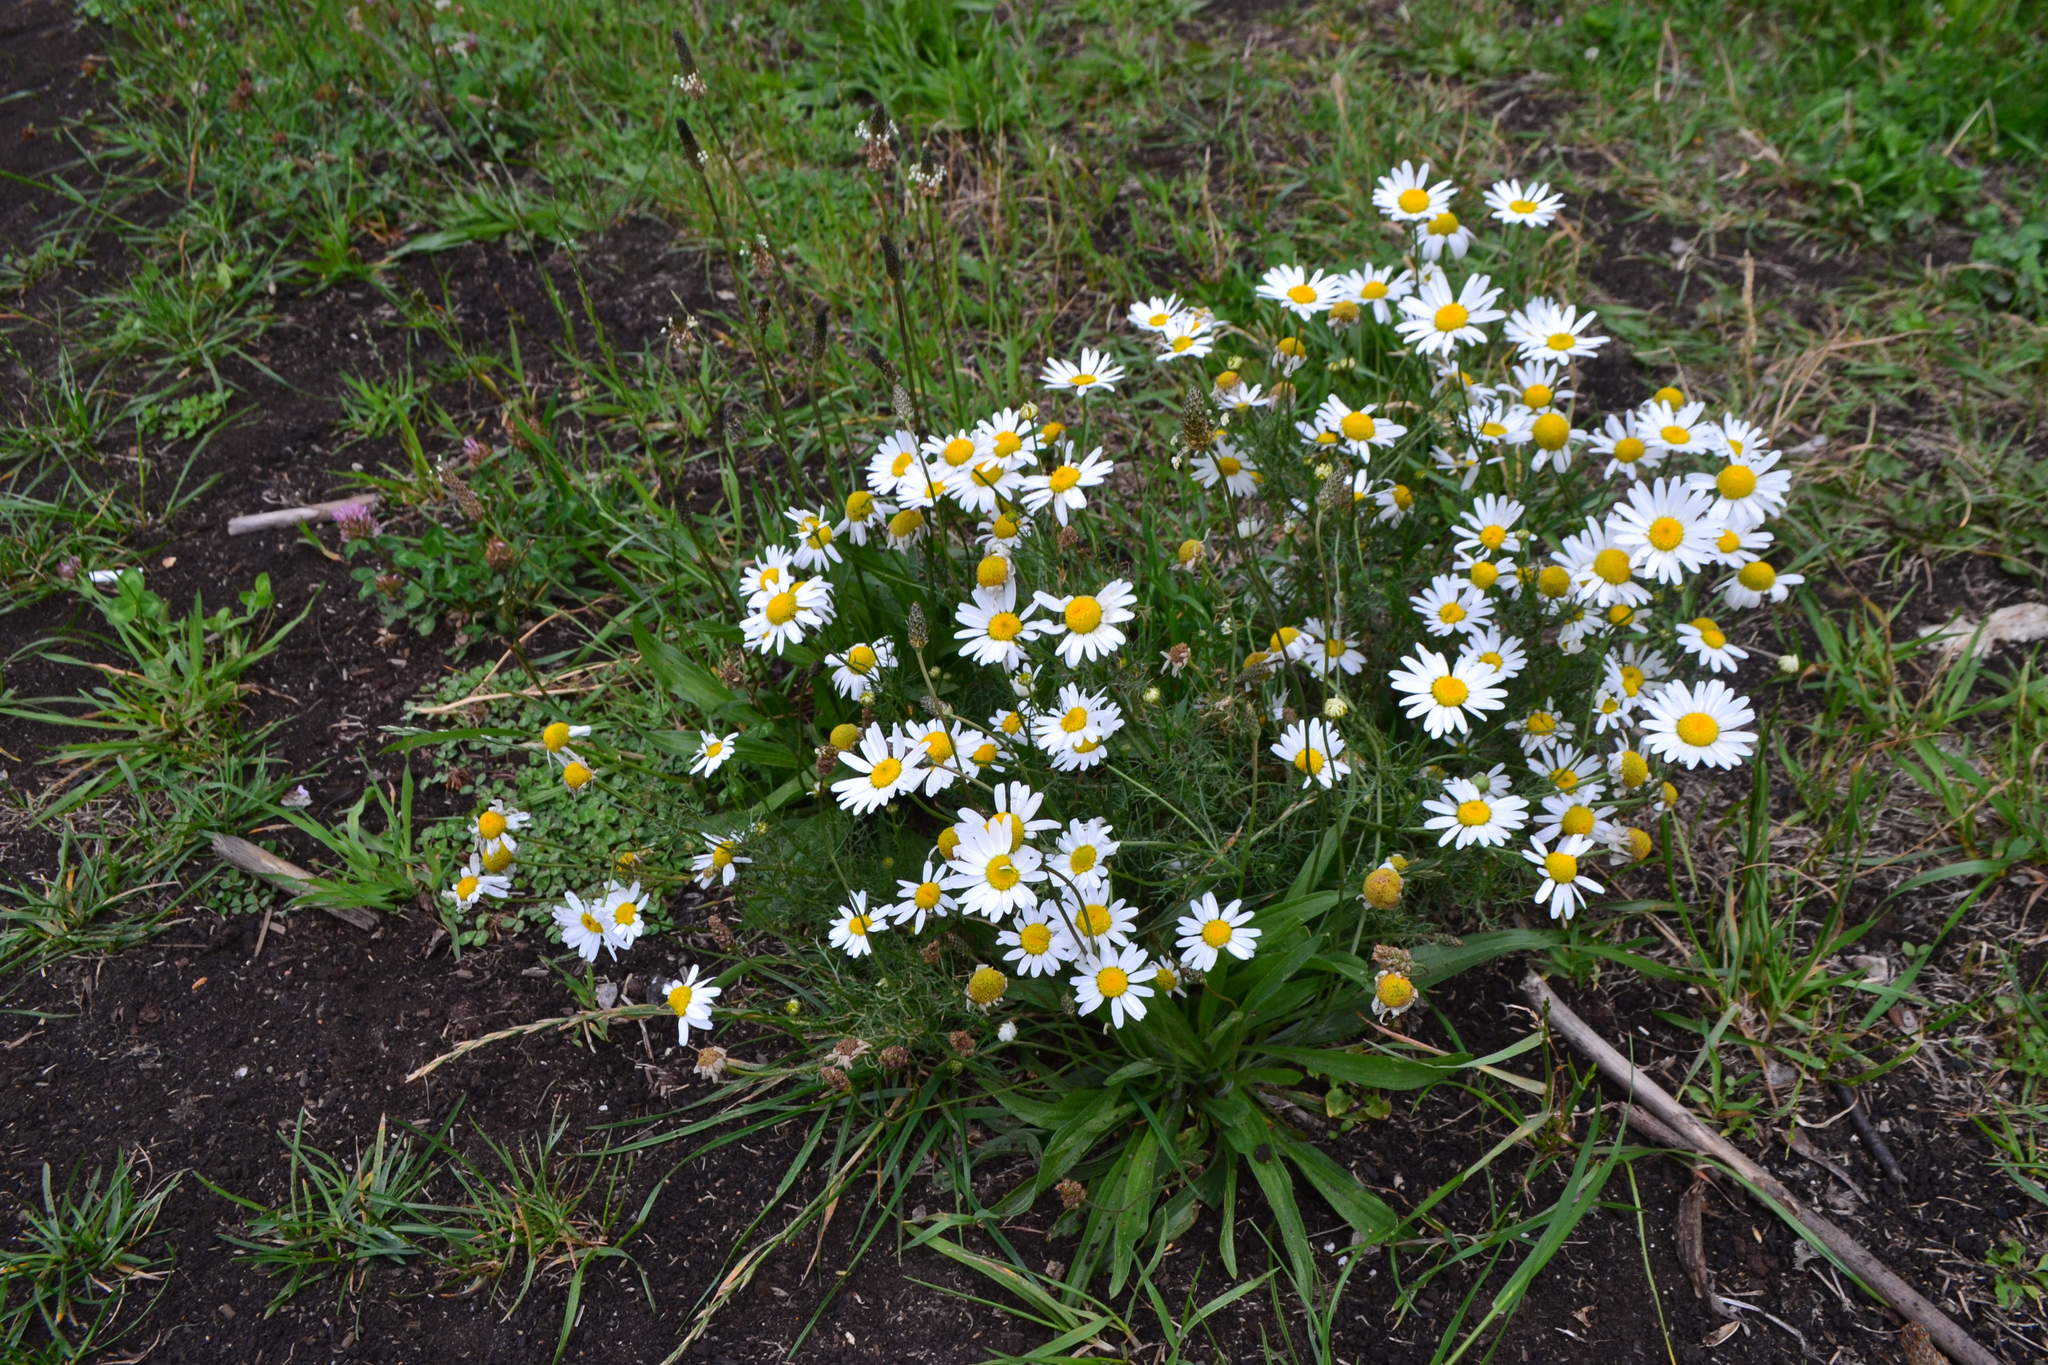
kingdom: Plantae
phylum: Tracheophyta
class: Magnoliopsida
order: Asterales
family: Asteraceae
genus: Tripleurospermum
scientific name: Tripleurospermum inodorum
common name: Scentless mayweed
